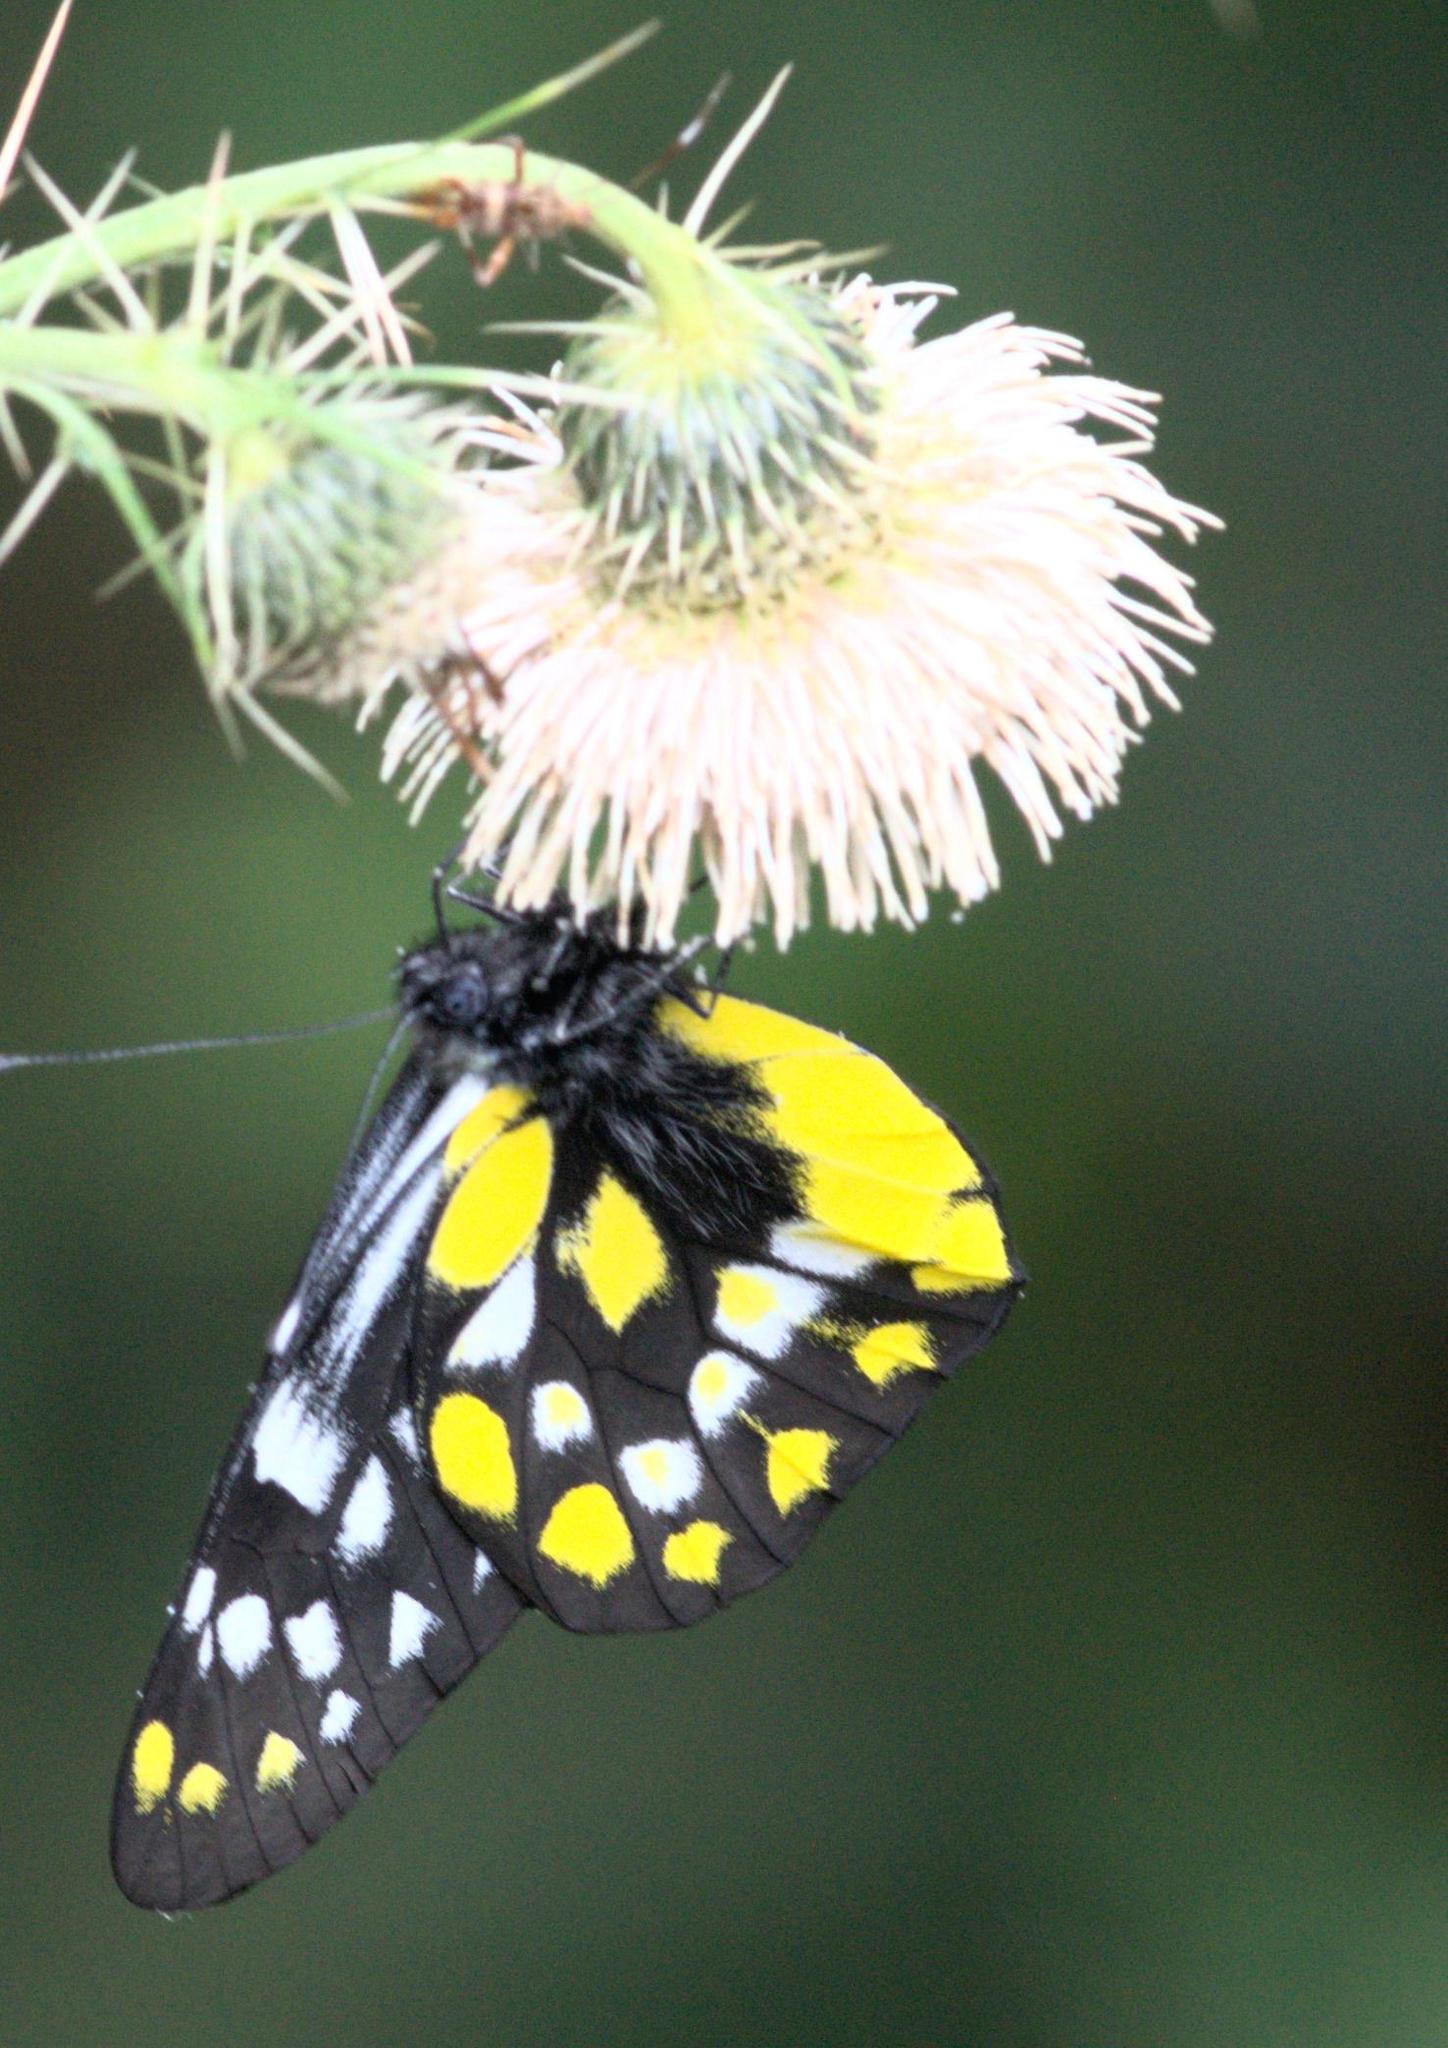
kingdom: Animalia
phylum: Arthropoda
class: Insecta
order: Lepidoptera
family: Pieridae
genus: Delias
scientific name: Delias belladonna
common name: Hill jezebel
